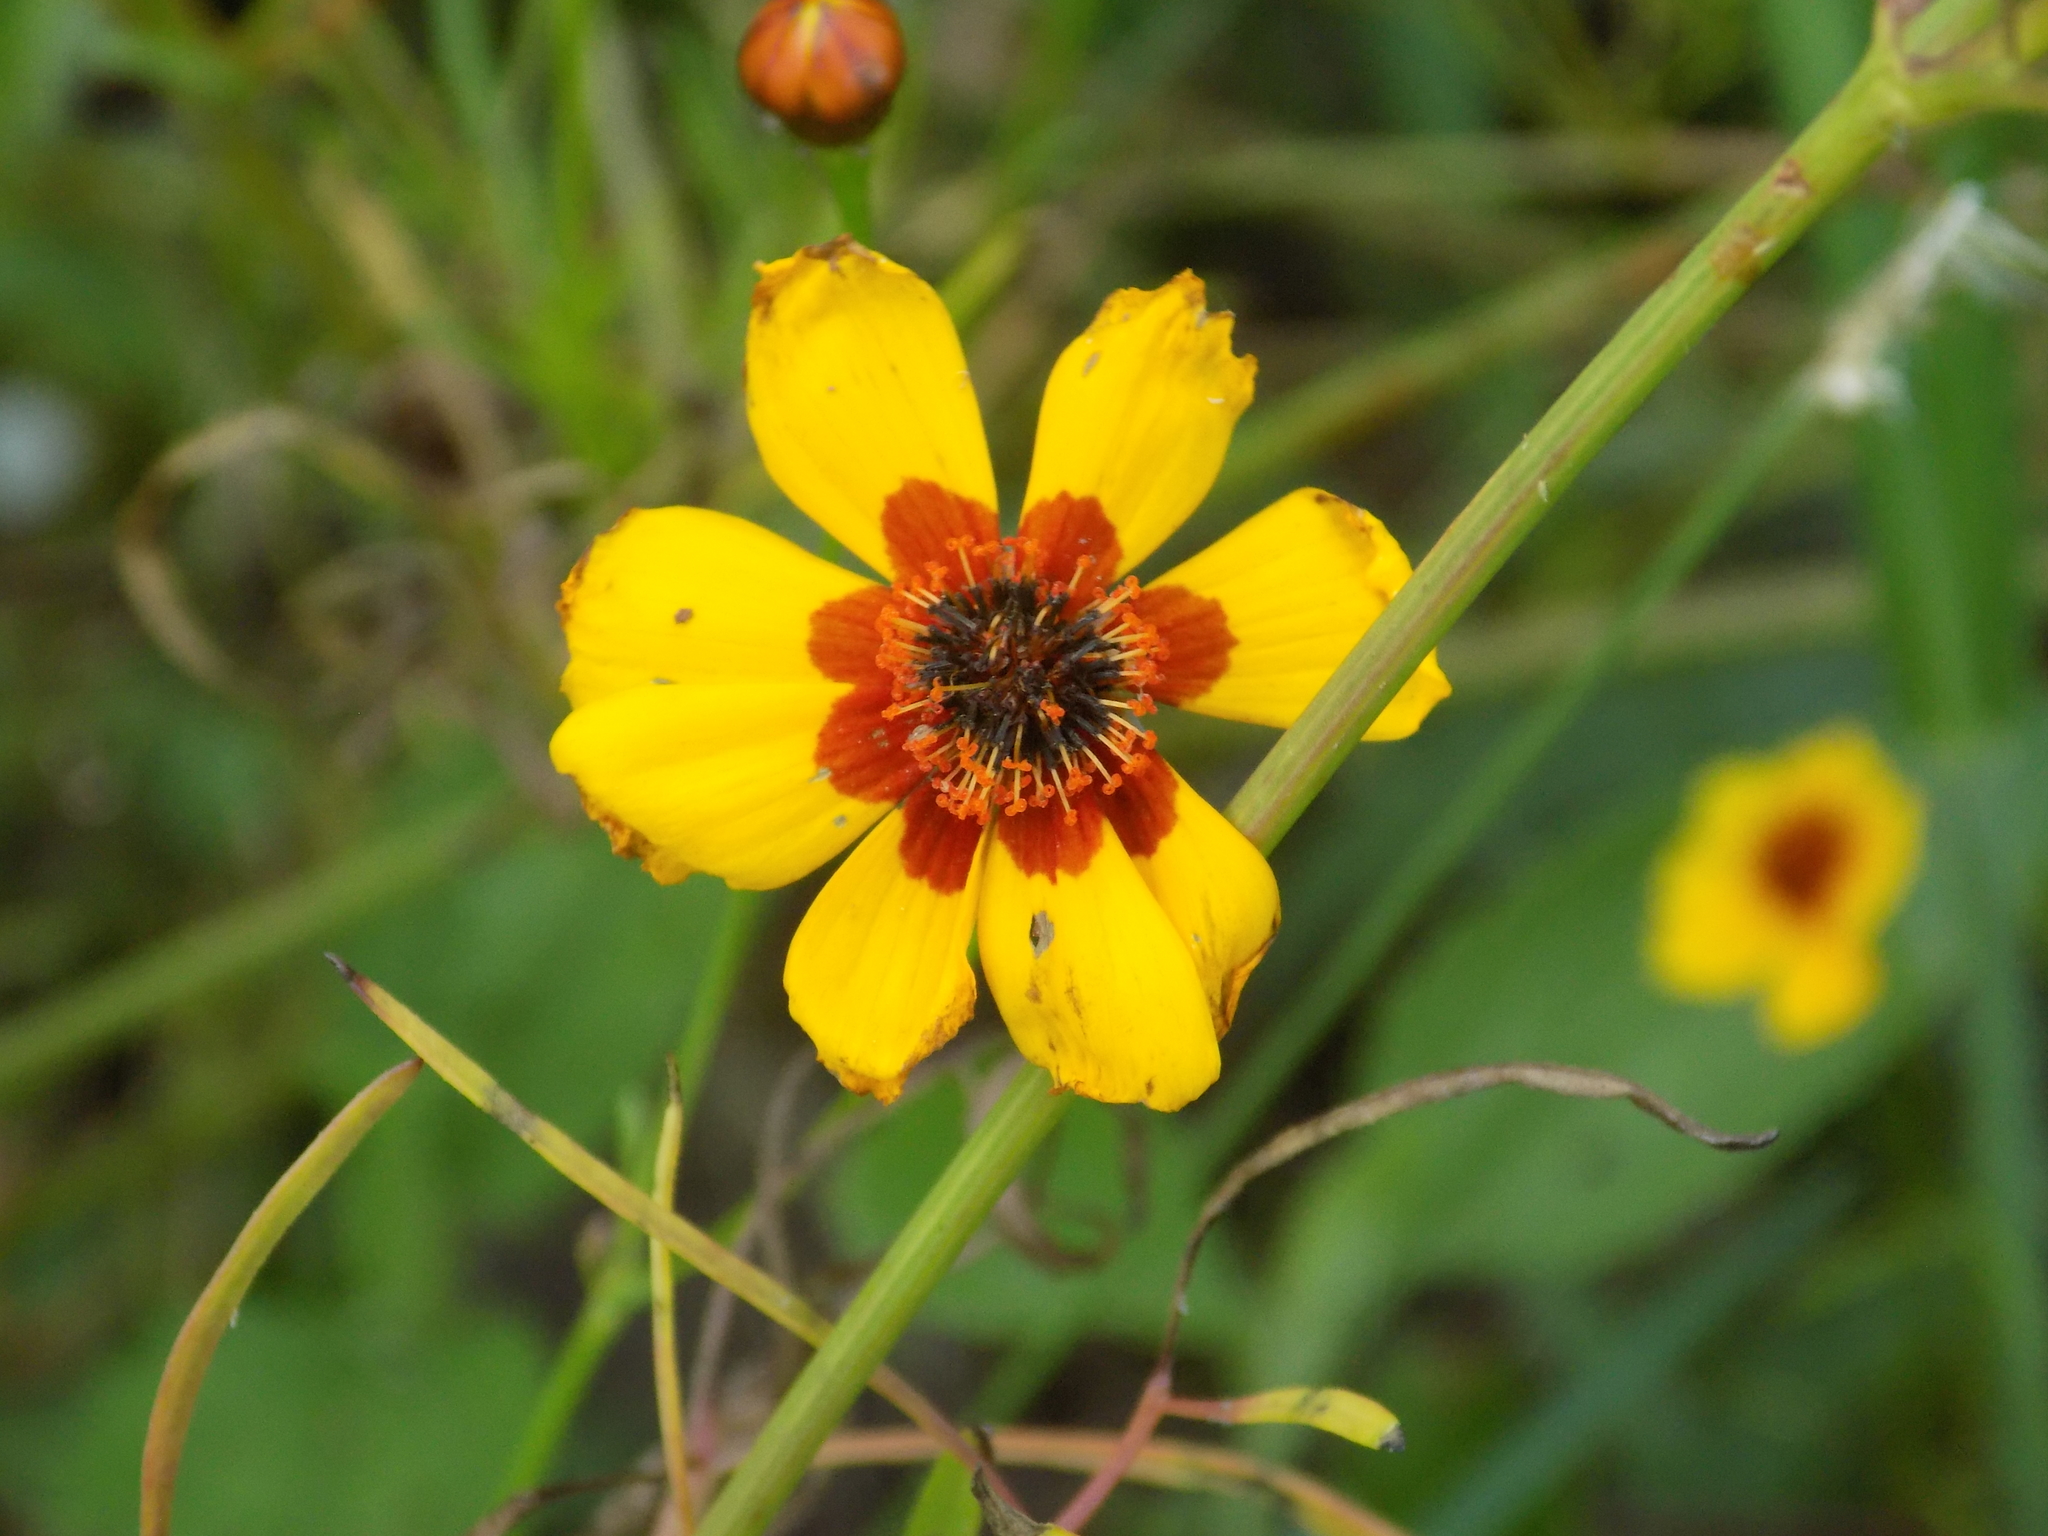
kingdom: Plantae
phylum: Tracheophyta
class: Magnoliopsida
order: Asterales
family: Asteraceae
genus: Coreopsis
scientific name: Coreopsis tinctoria
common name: Garden tickseed
